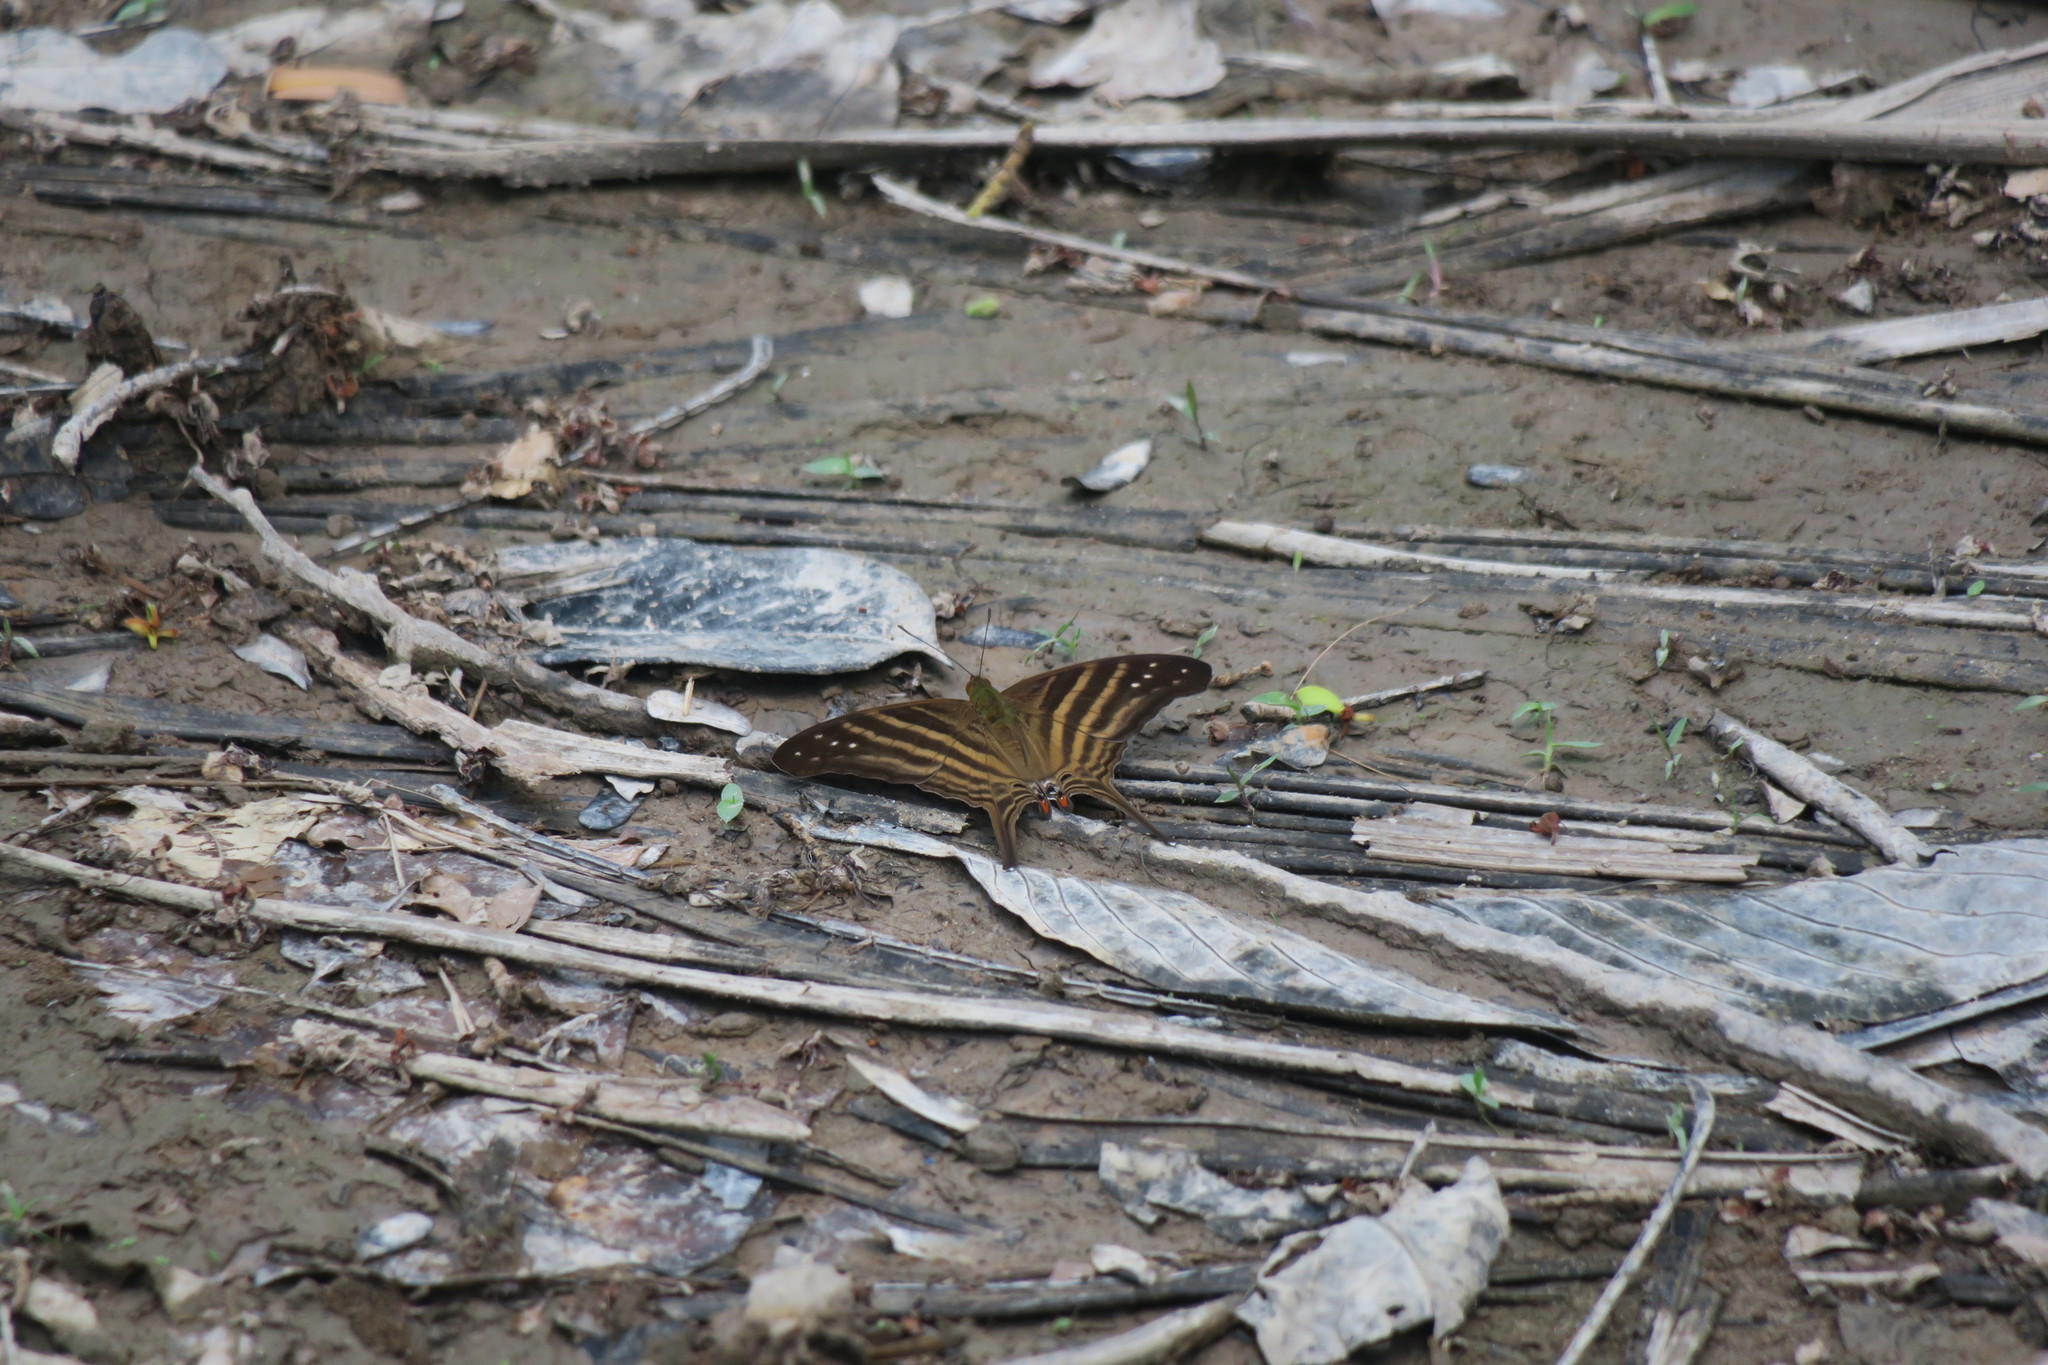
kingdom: Animalia
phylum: Arthropoda
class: Insecta
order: Lepidoptera
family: Nymphalidae
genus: Marpesia
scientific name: Marpesia chiron
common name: Many-banded daggerwing
